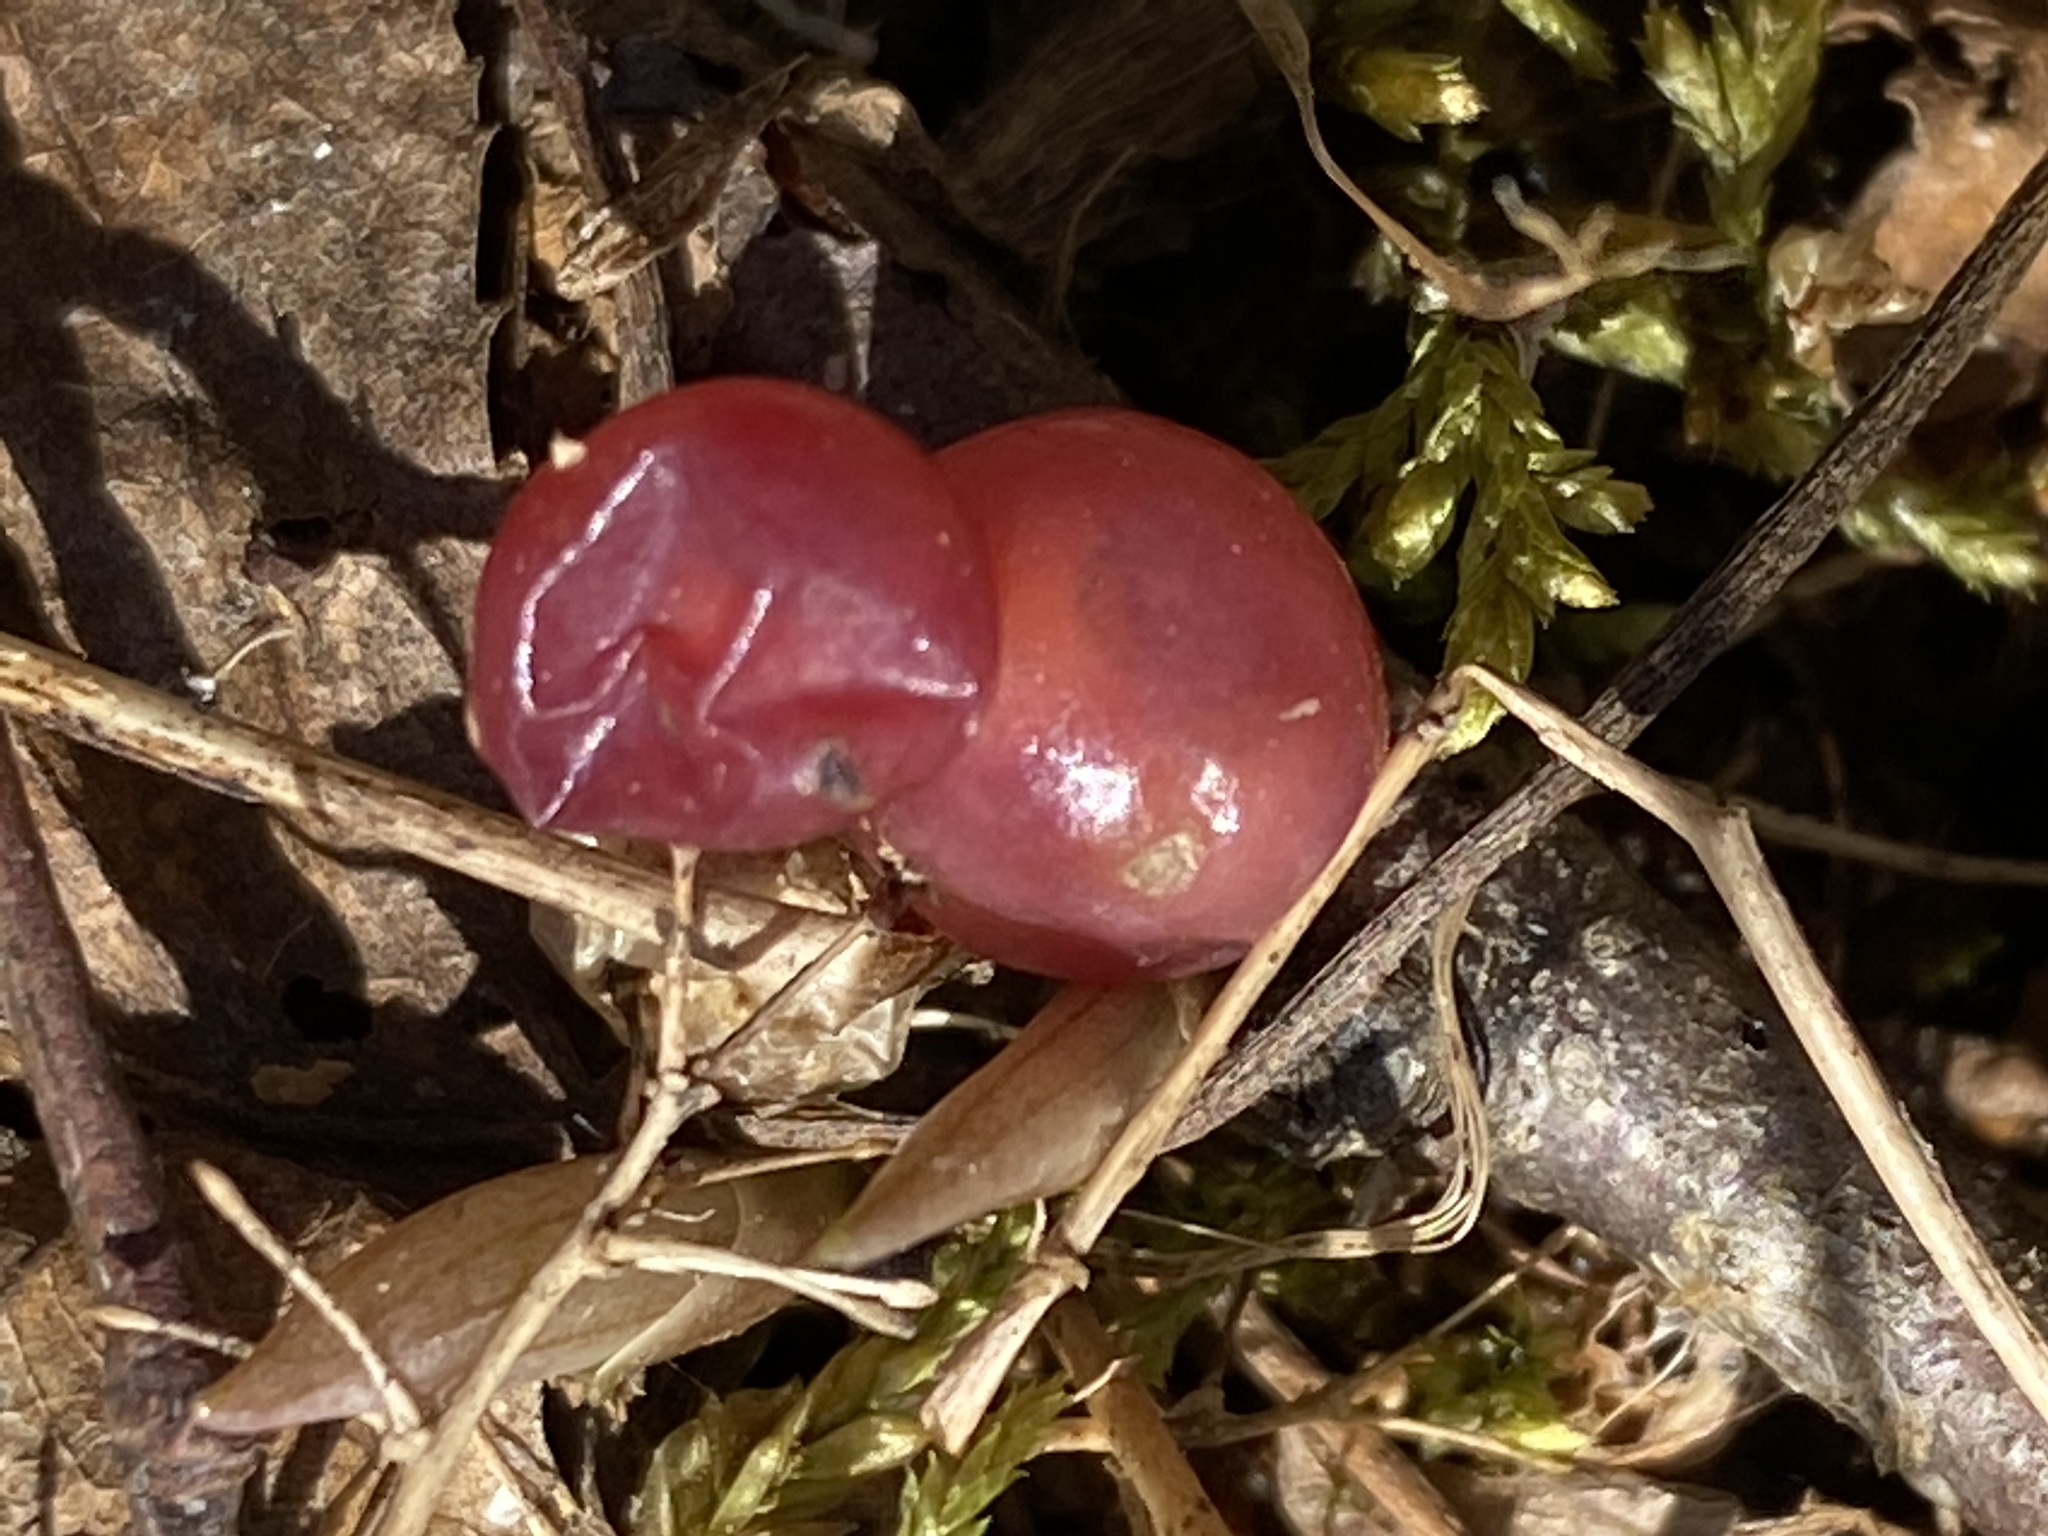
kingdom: Plantae
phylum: Tracheophyta
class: Liliopsida
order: Asparagales
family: Asparagaceae
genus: Maianthemum
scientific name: Maianthemum canadense
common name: False lily-of-the-valley
